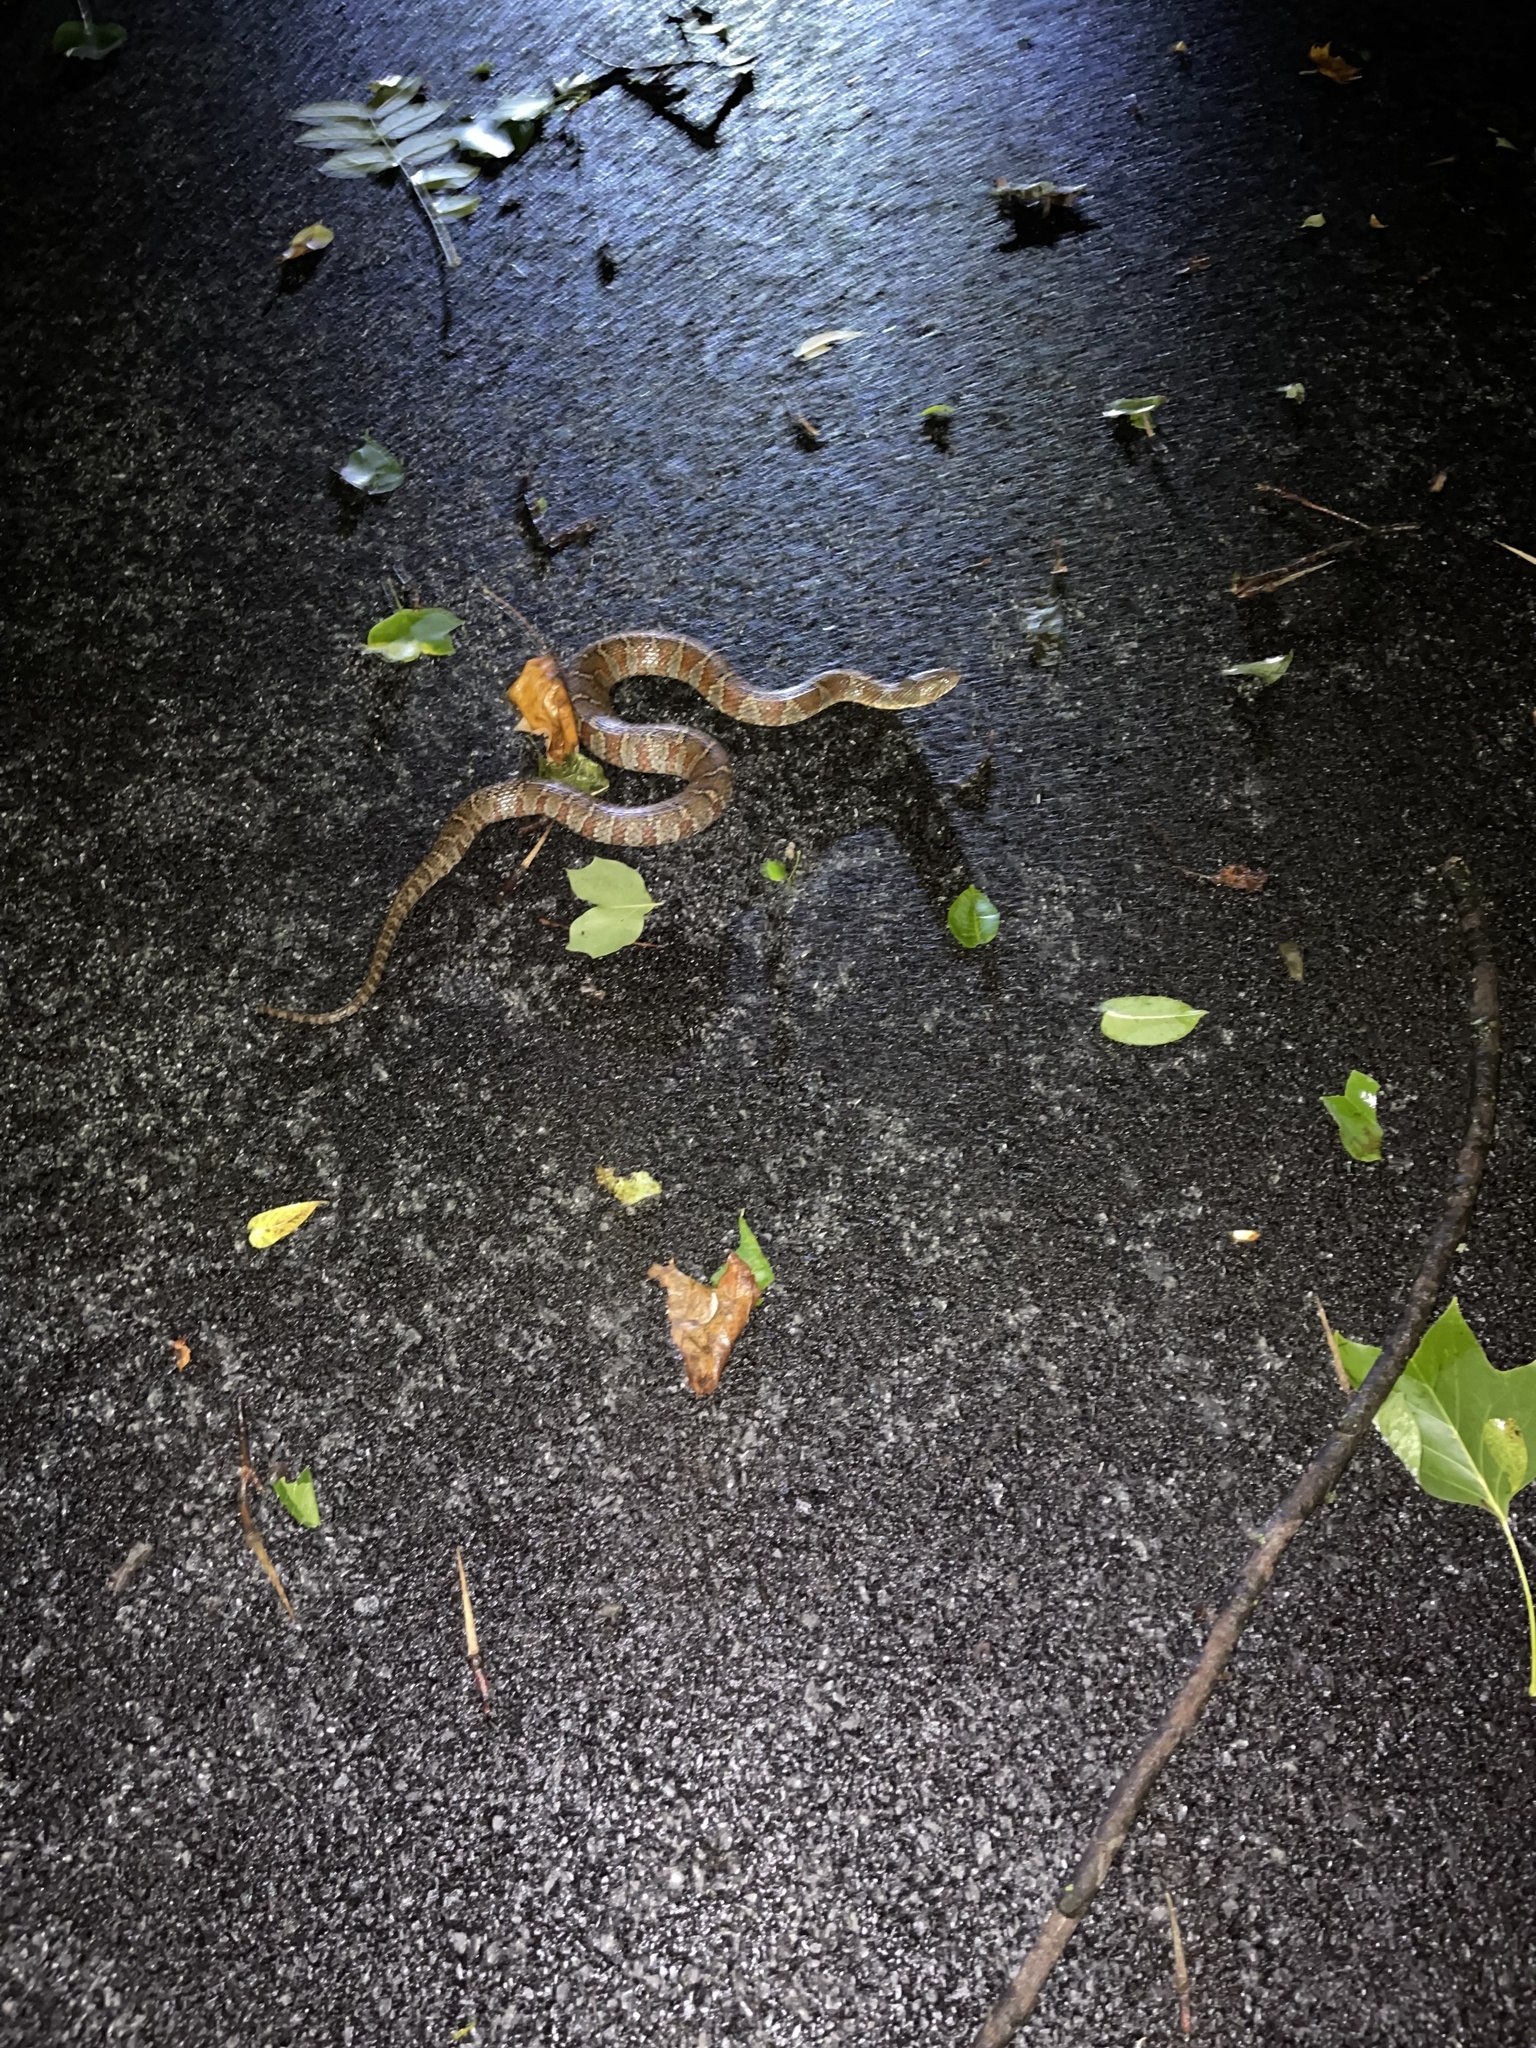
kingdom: Animalia
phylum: Chordata
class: Squamata
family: Colubridae
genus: Nerodia
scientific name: Nerodia sipedon
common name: Northern water snake
